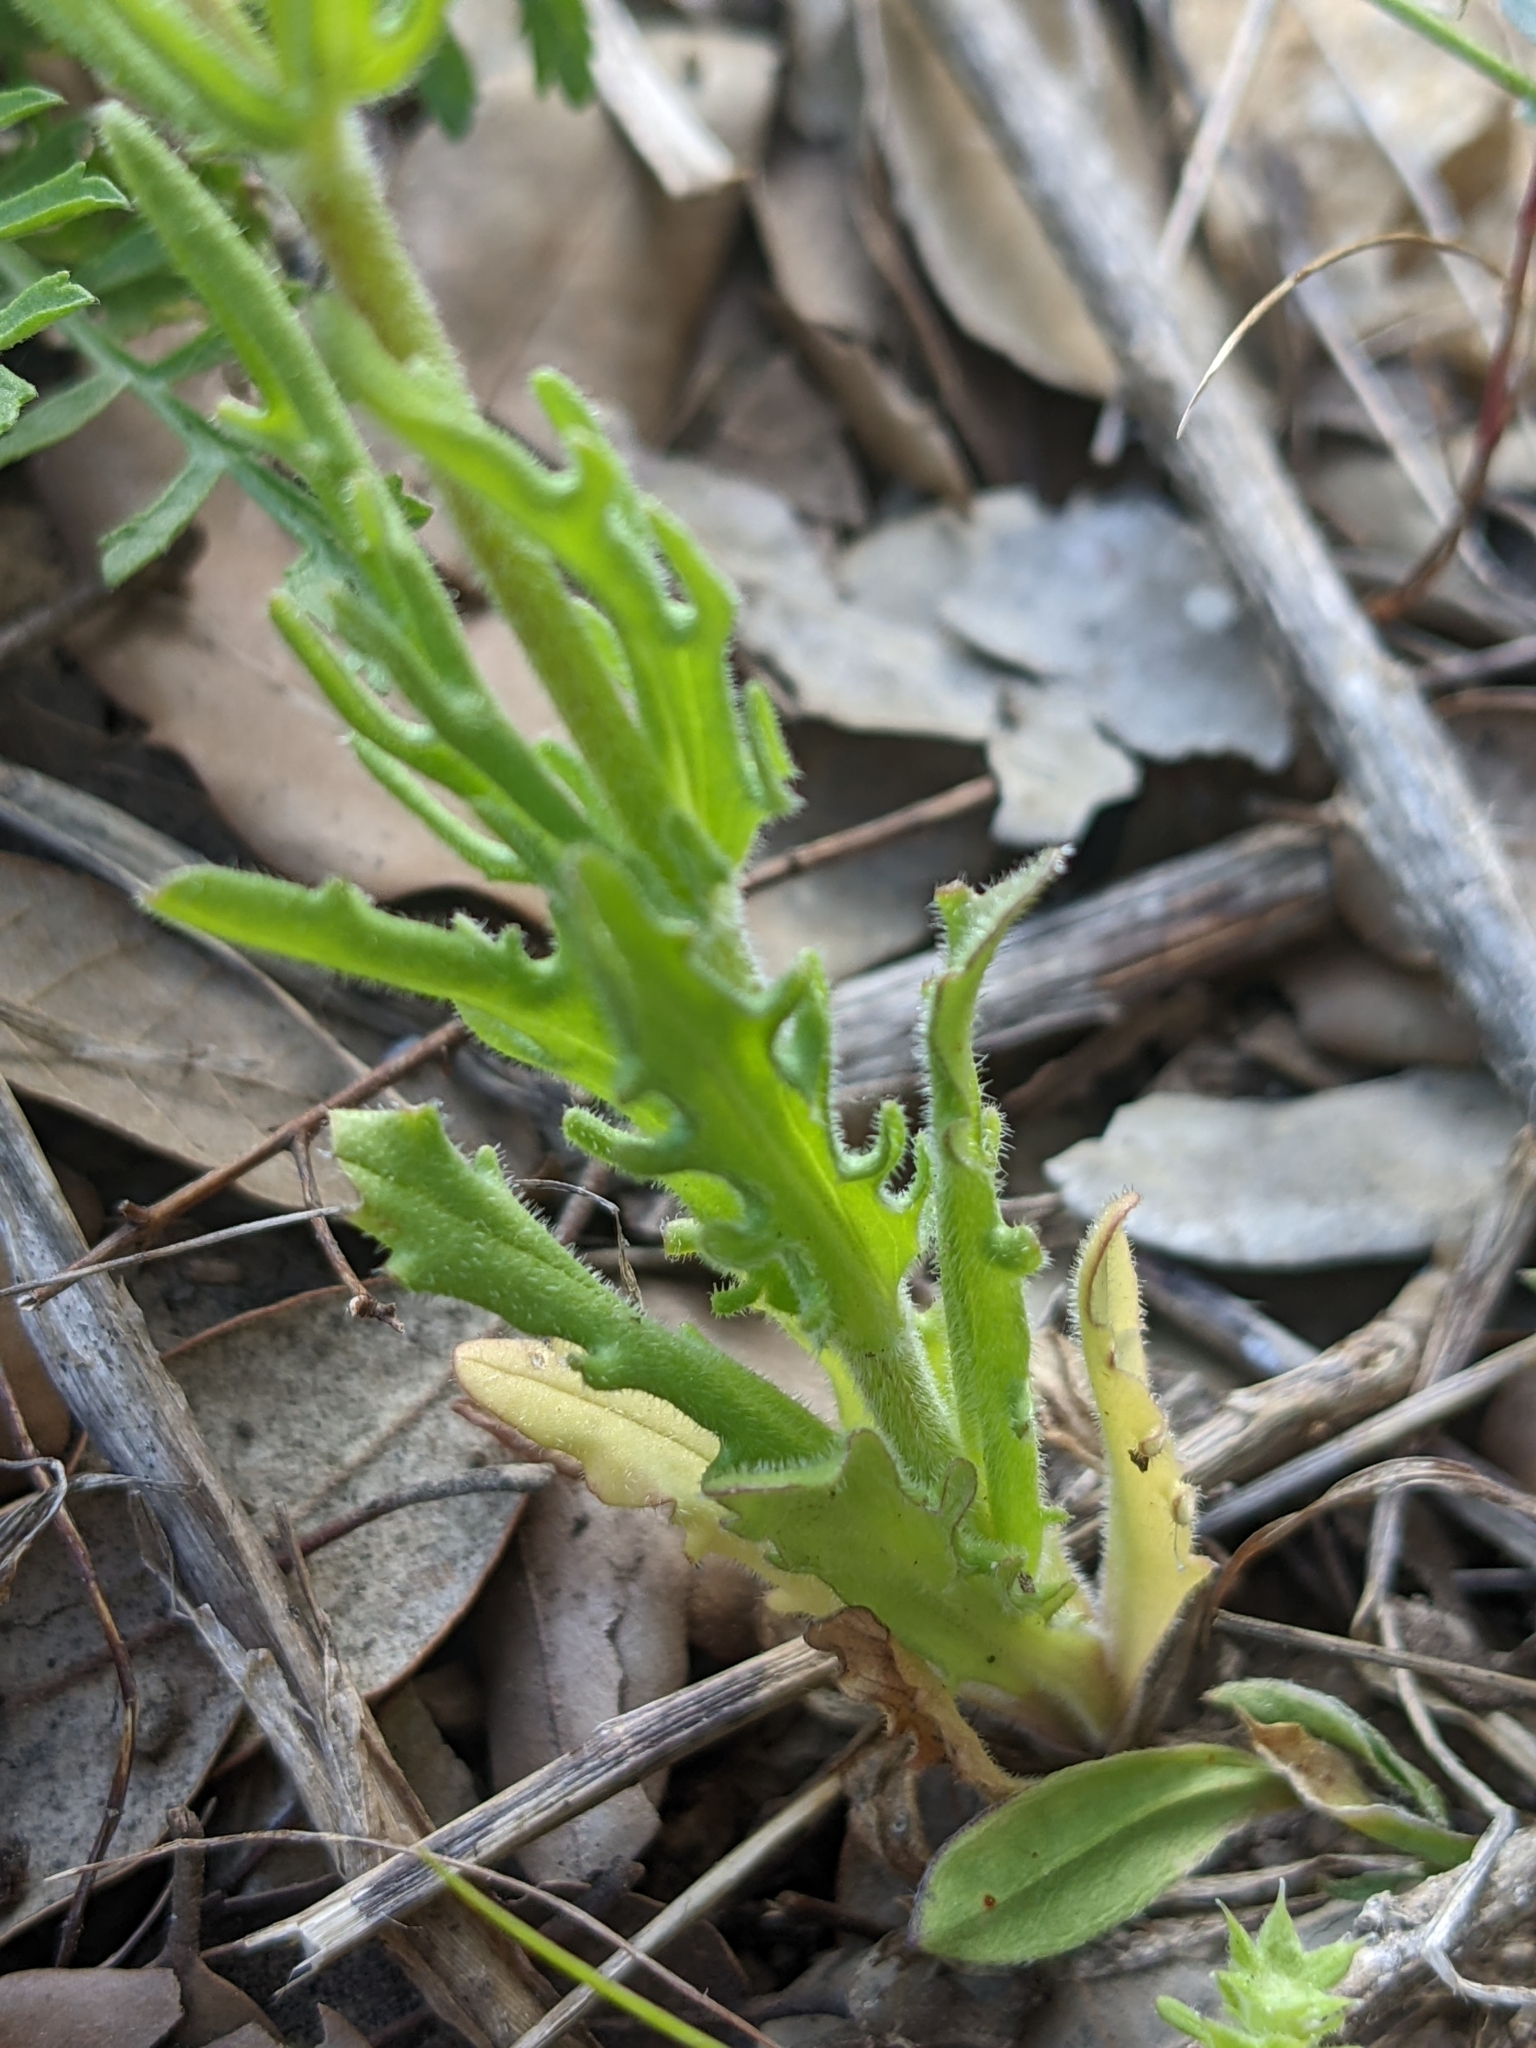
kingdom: Plantae
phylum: Tracheophyta
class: Magnoliopsida
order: Dipsacales
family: Caprifoliaceae
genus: Valerianella
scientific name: Valerianella discoidea
